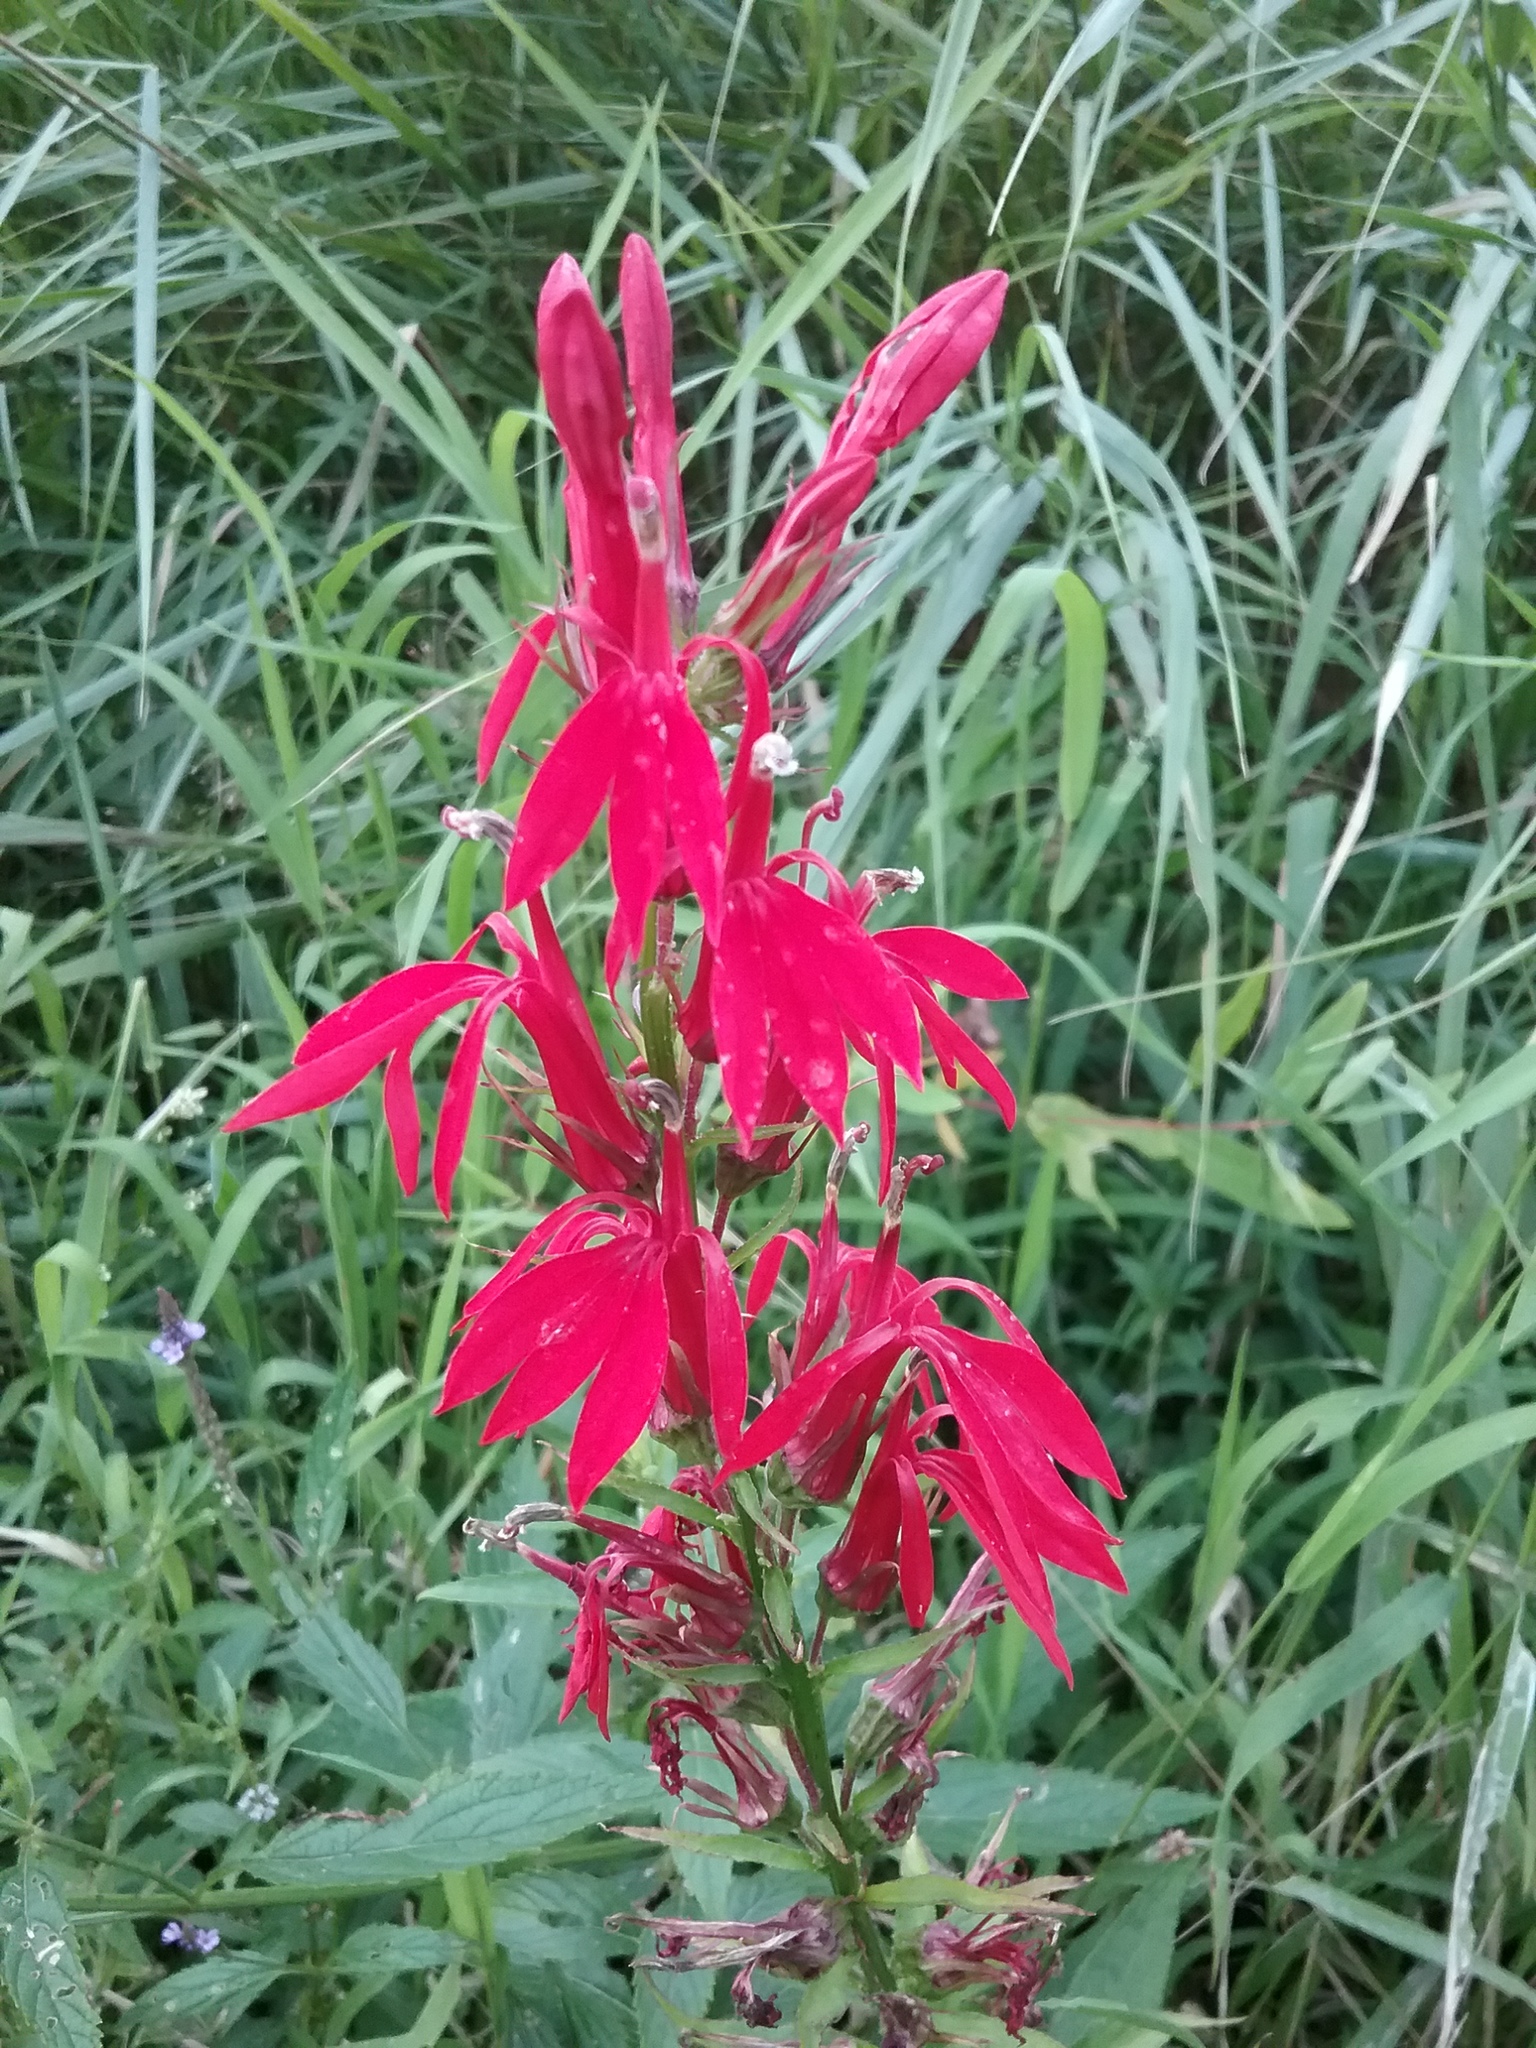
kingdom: Plantae
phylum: Tracheophyta
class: Magnoliopsida
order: Asterales
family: Campanulaceae
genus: Lobelia
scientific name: Lobelia cardinalis
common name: Cardinal flower
